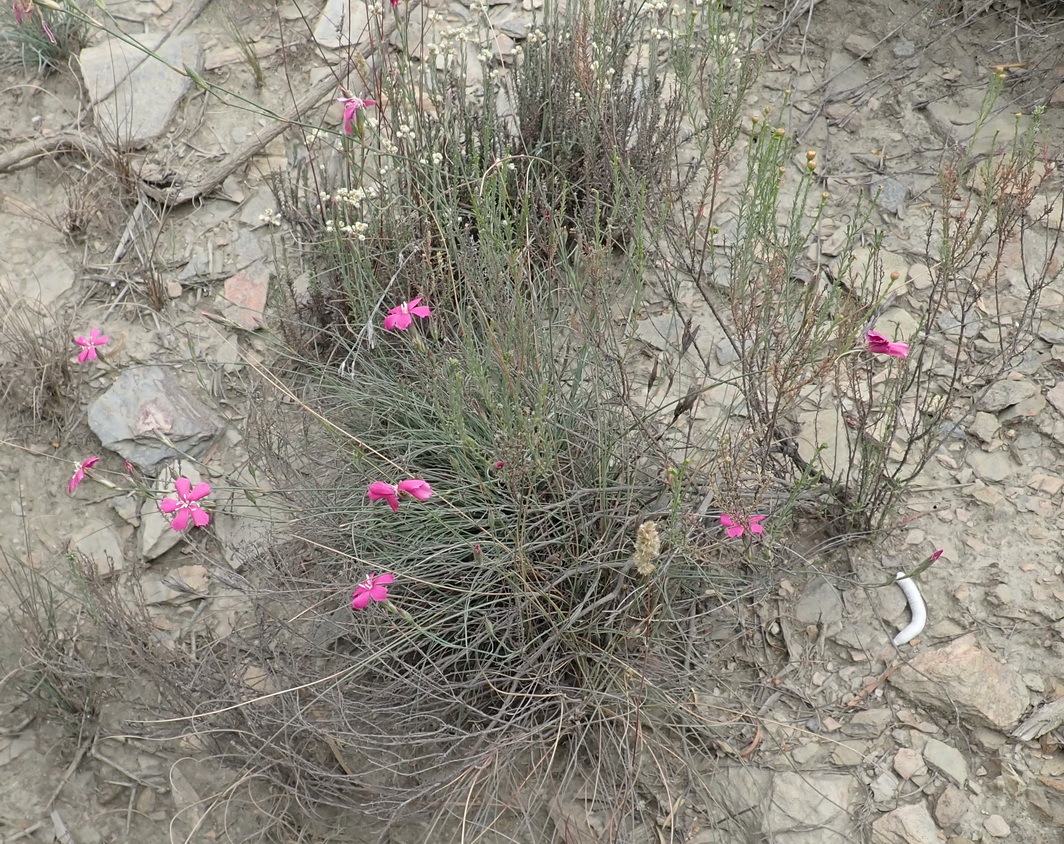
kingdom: Plantae
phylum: Tracheophyta
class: Magnoliopsida
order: Caryophyllales
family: Caryophyllaceae
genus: Dianthus
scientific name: Dianthus basuticus
